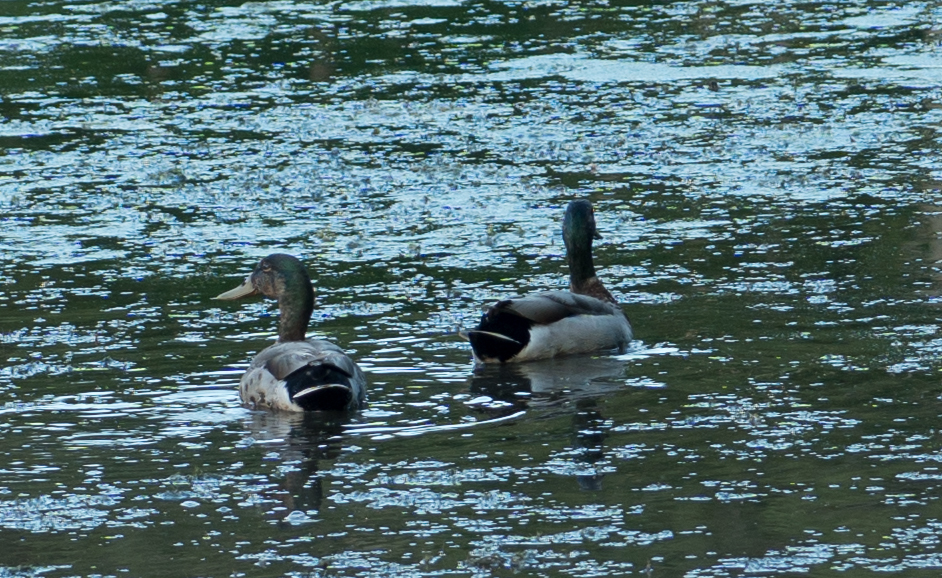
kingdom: Animalia
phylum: Chordata
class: Aves
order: Anseriformes
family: Anatidae
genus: Anas
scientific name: Anas platyrhynchos
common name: Mallard
